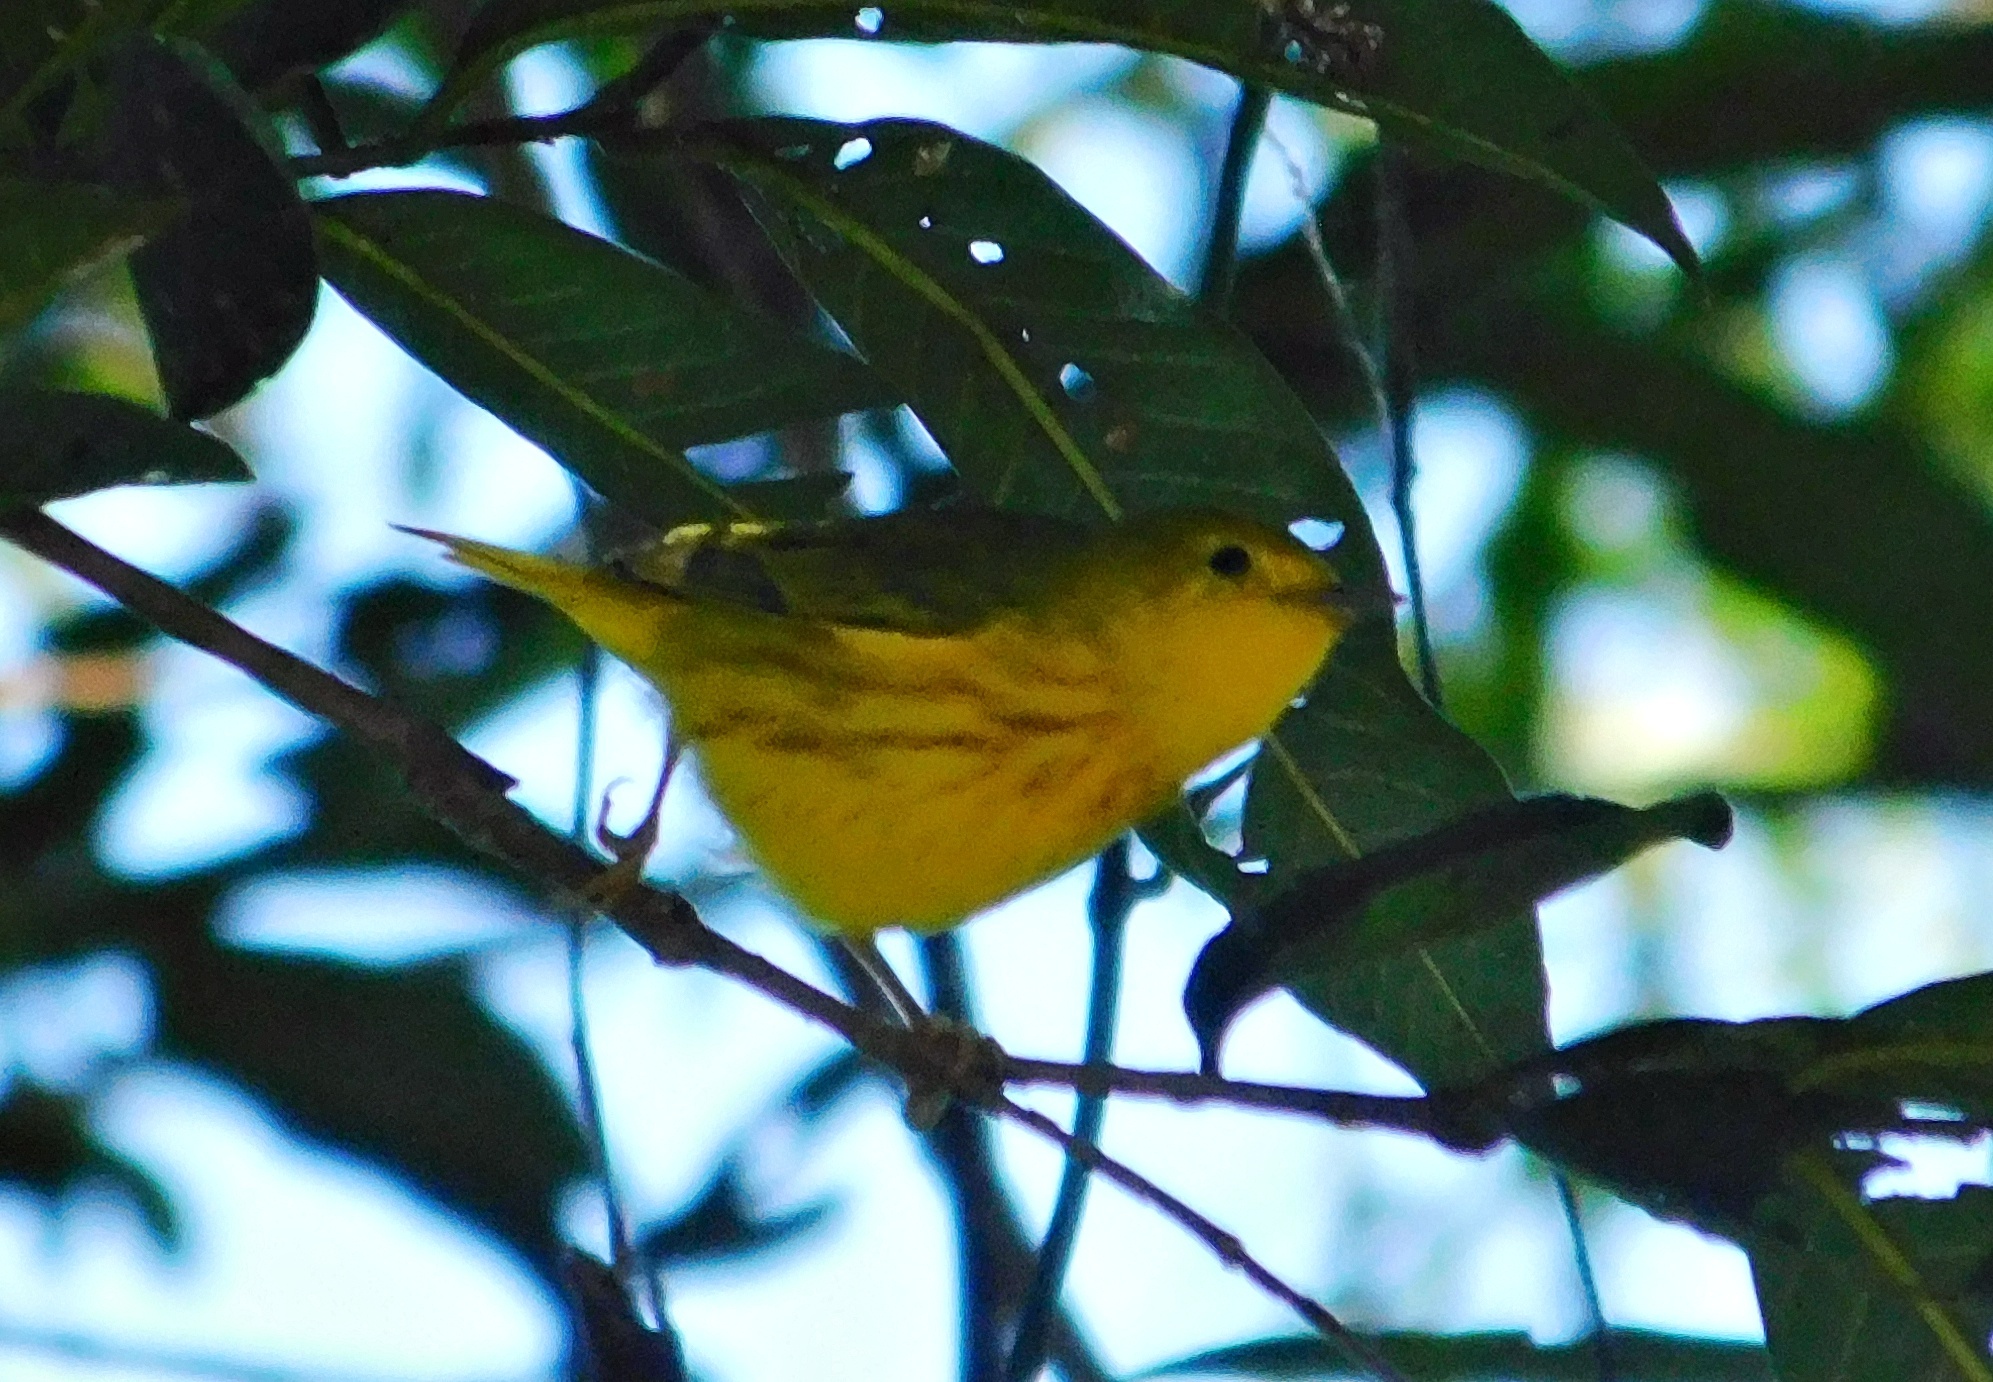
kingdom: Animalia
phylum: Chordata
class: Aves
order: Passeriformes
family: Parulidae
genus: Setophaga
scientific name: Setophaga petechia
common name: Yellow warbler
